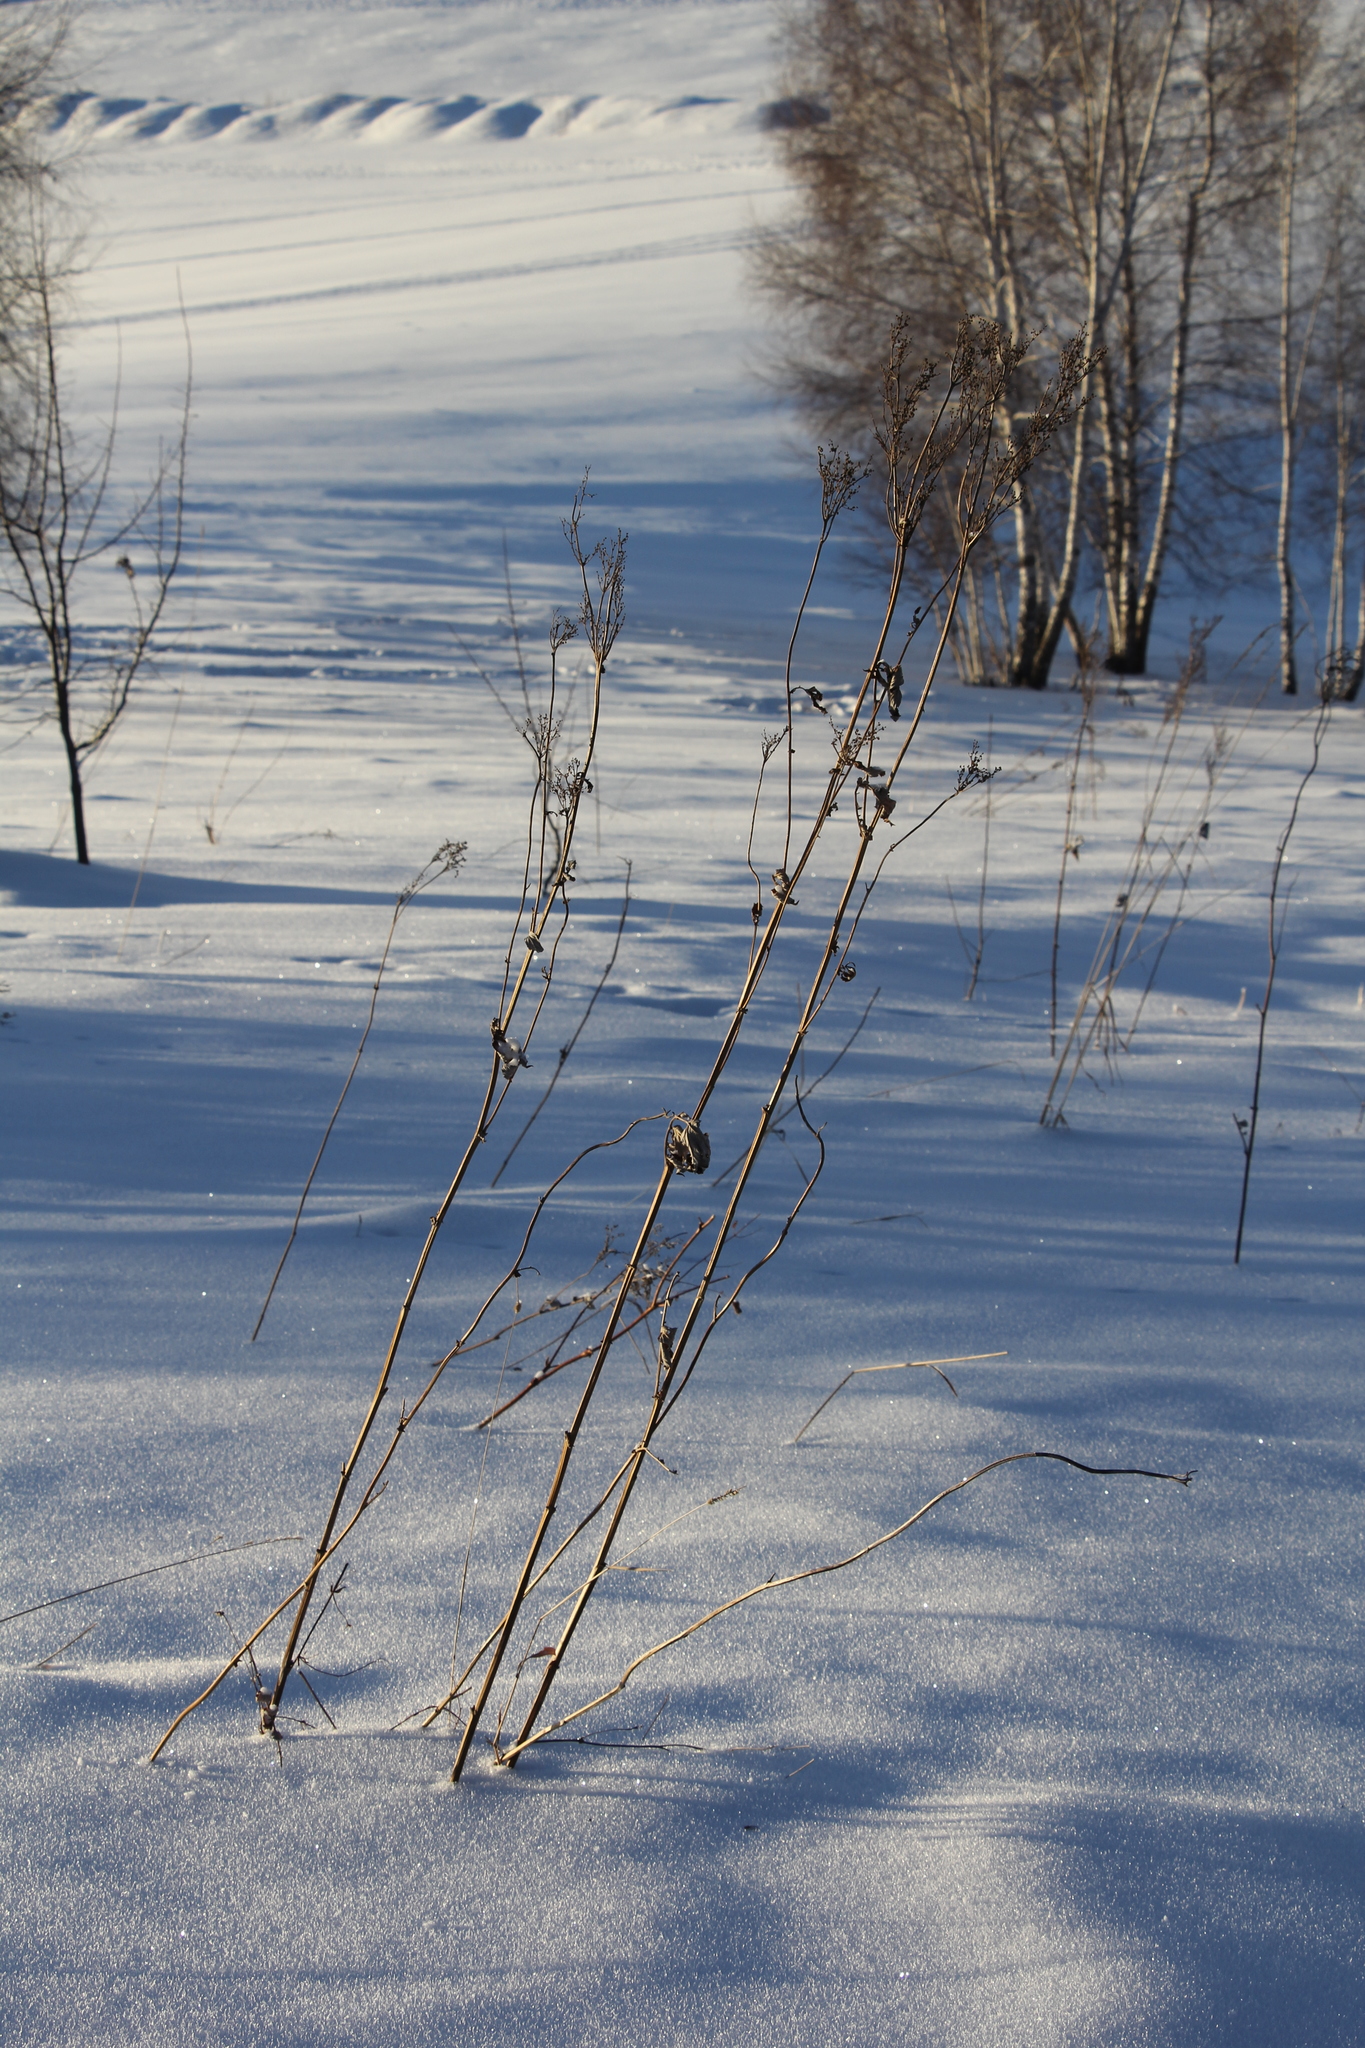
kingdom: Plantae
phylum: Tracheophyta
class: Magnoliopsida
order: Rosales
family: Rosaceae
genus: Filipendula
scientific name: Filipendula ulmaria
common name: Meadowsweet
